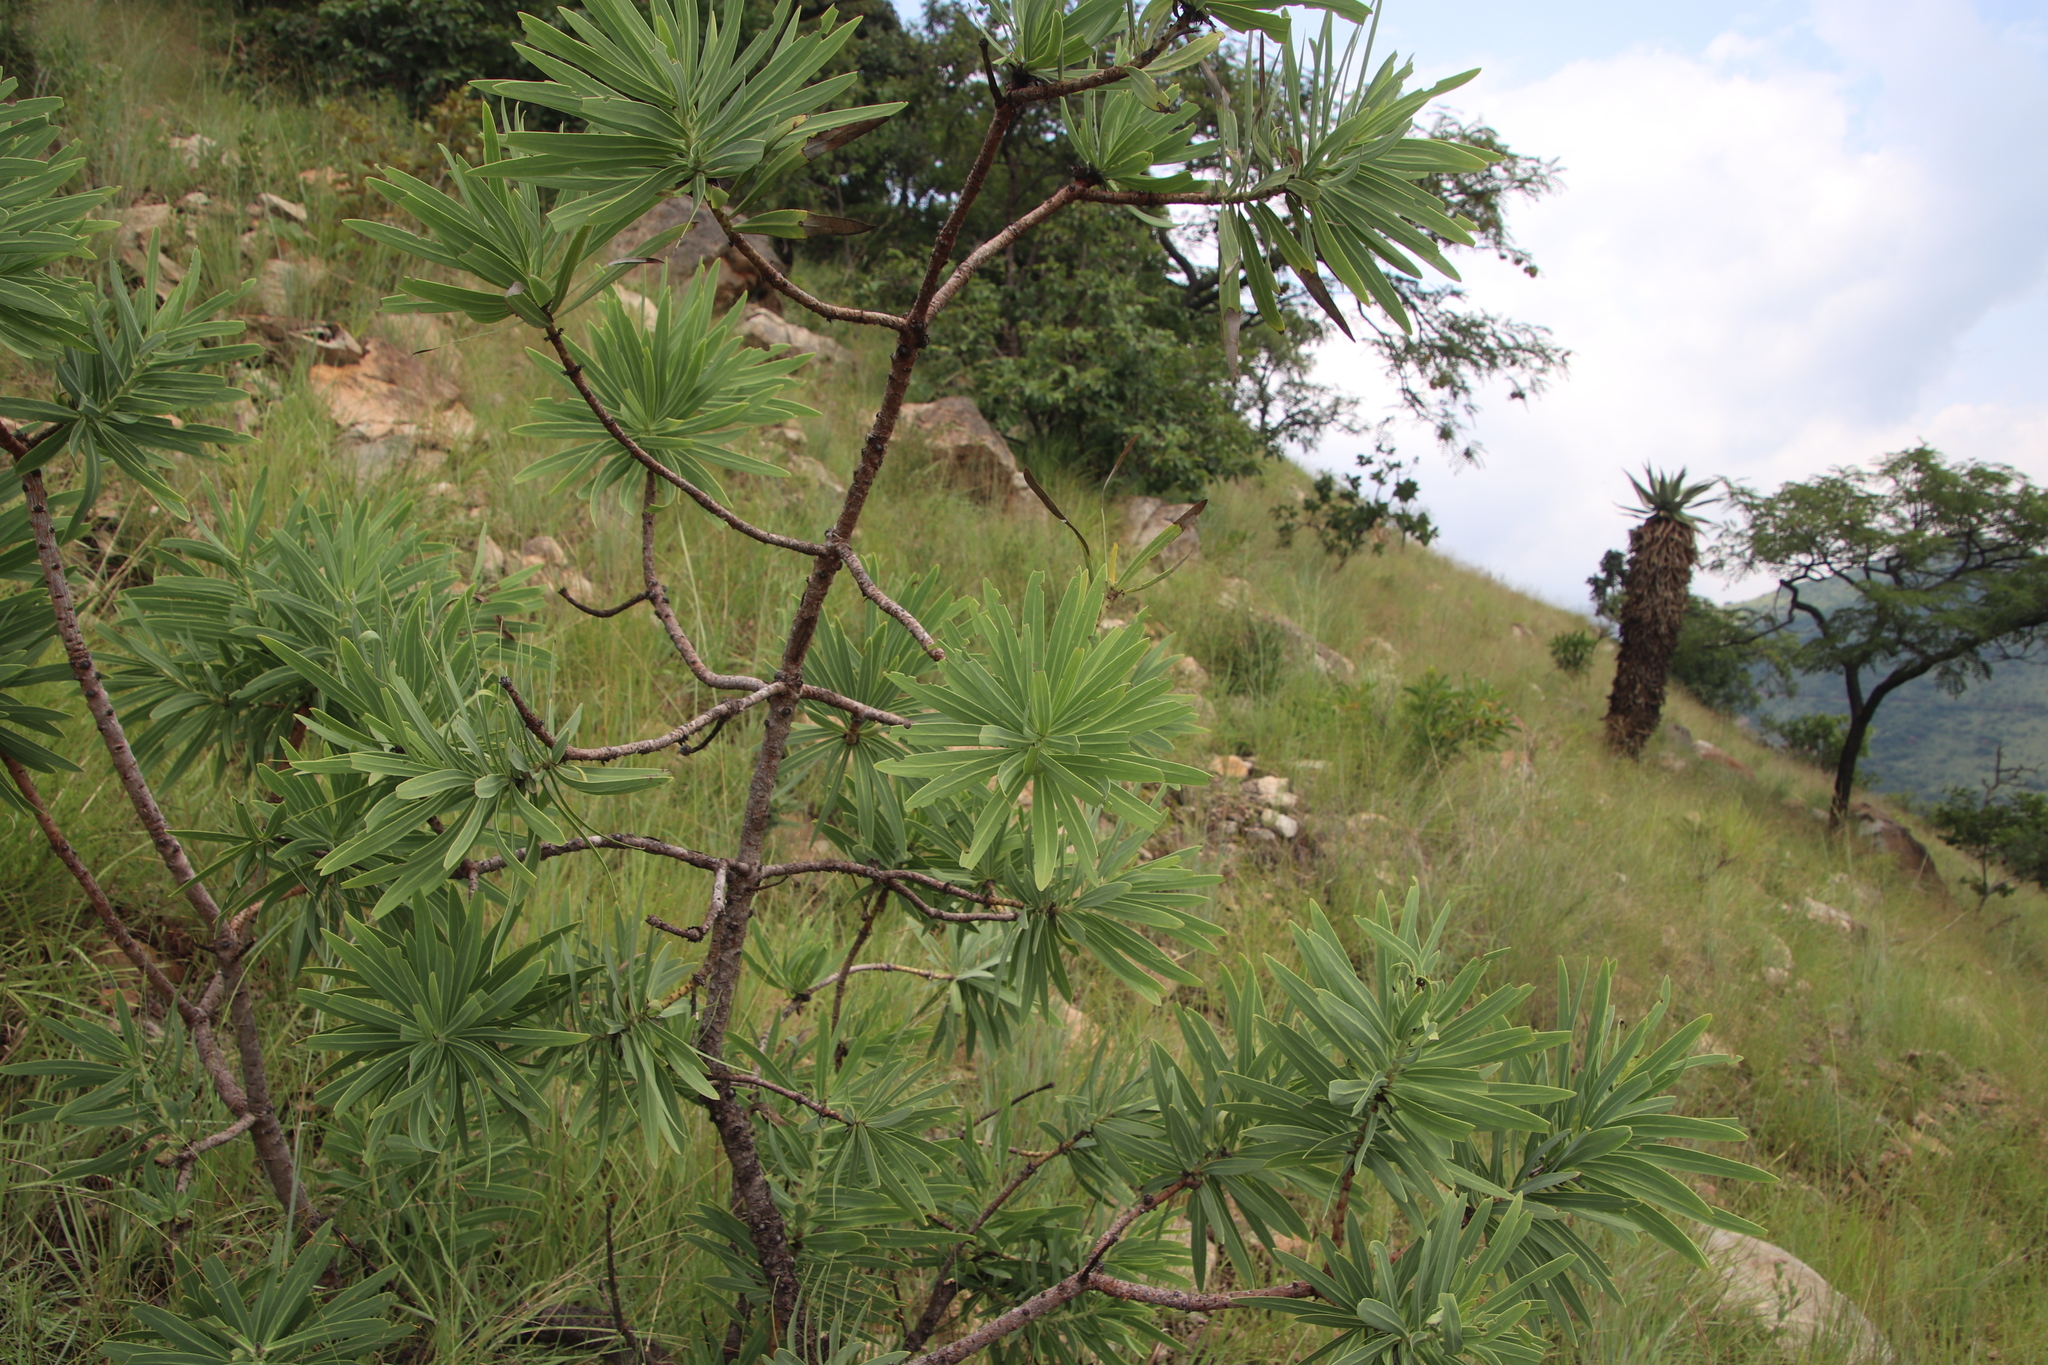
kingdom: Plantae
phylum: Tracheophyta
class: Magnoliopsida
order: Proteales
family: Proteaceae
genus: Protea
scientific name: Protea gaguedi
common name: African protea
